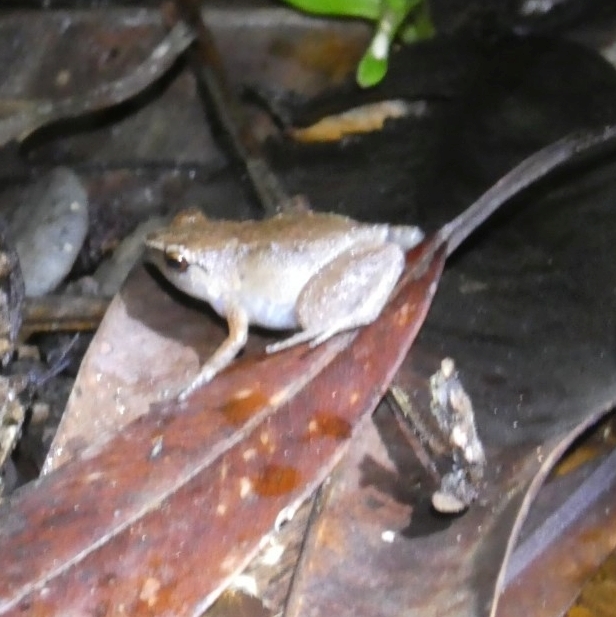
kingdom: Animalia
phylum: Chordata
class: Amphibia
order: Anura
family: Microhylidae
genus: Cophixalus
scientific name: Cophixalus rajampatensis
